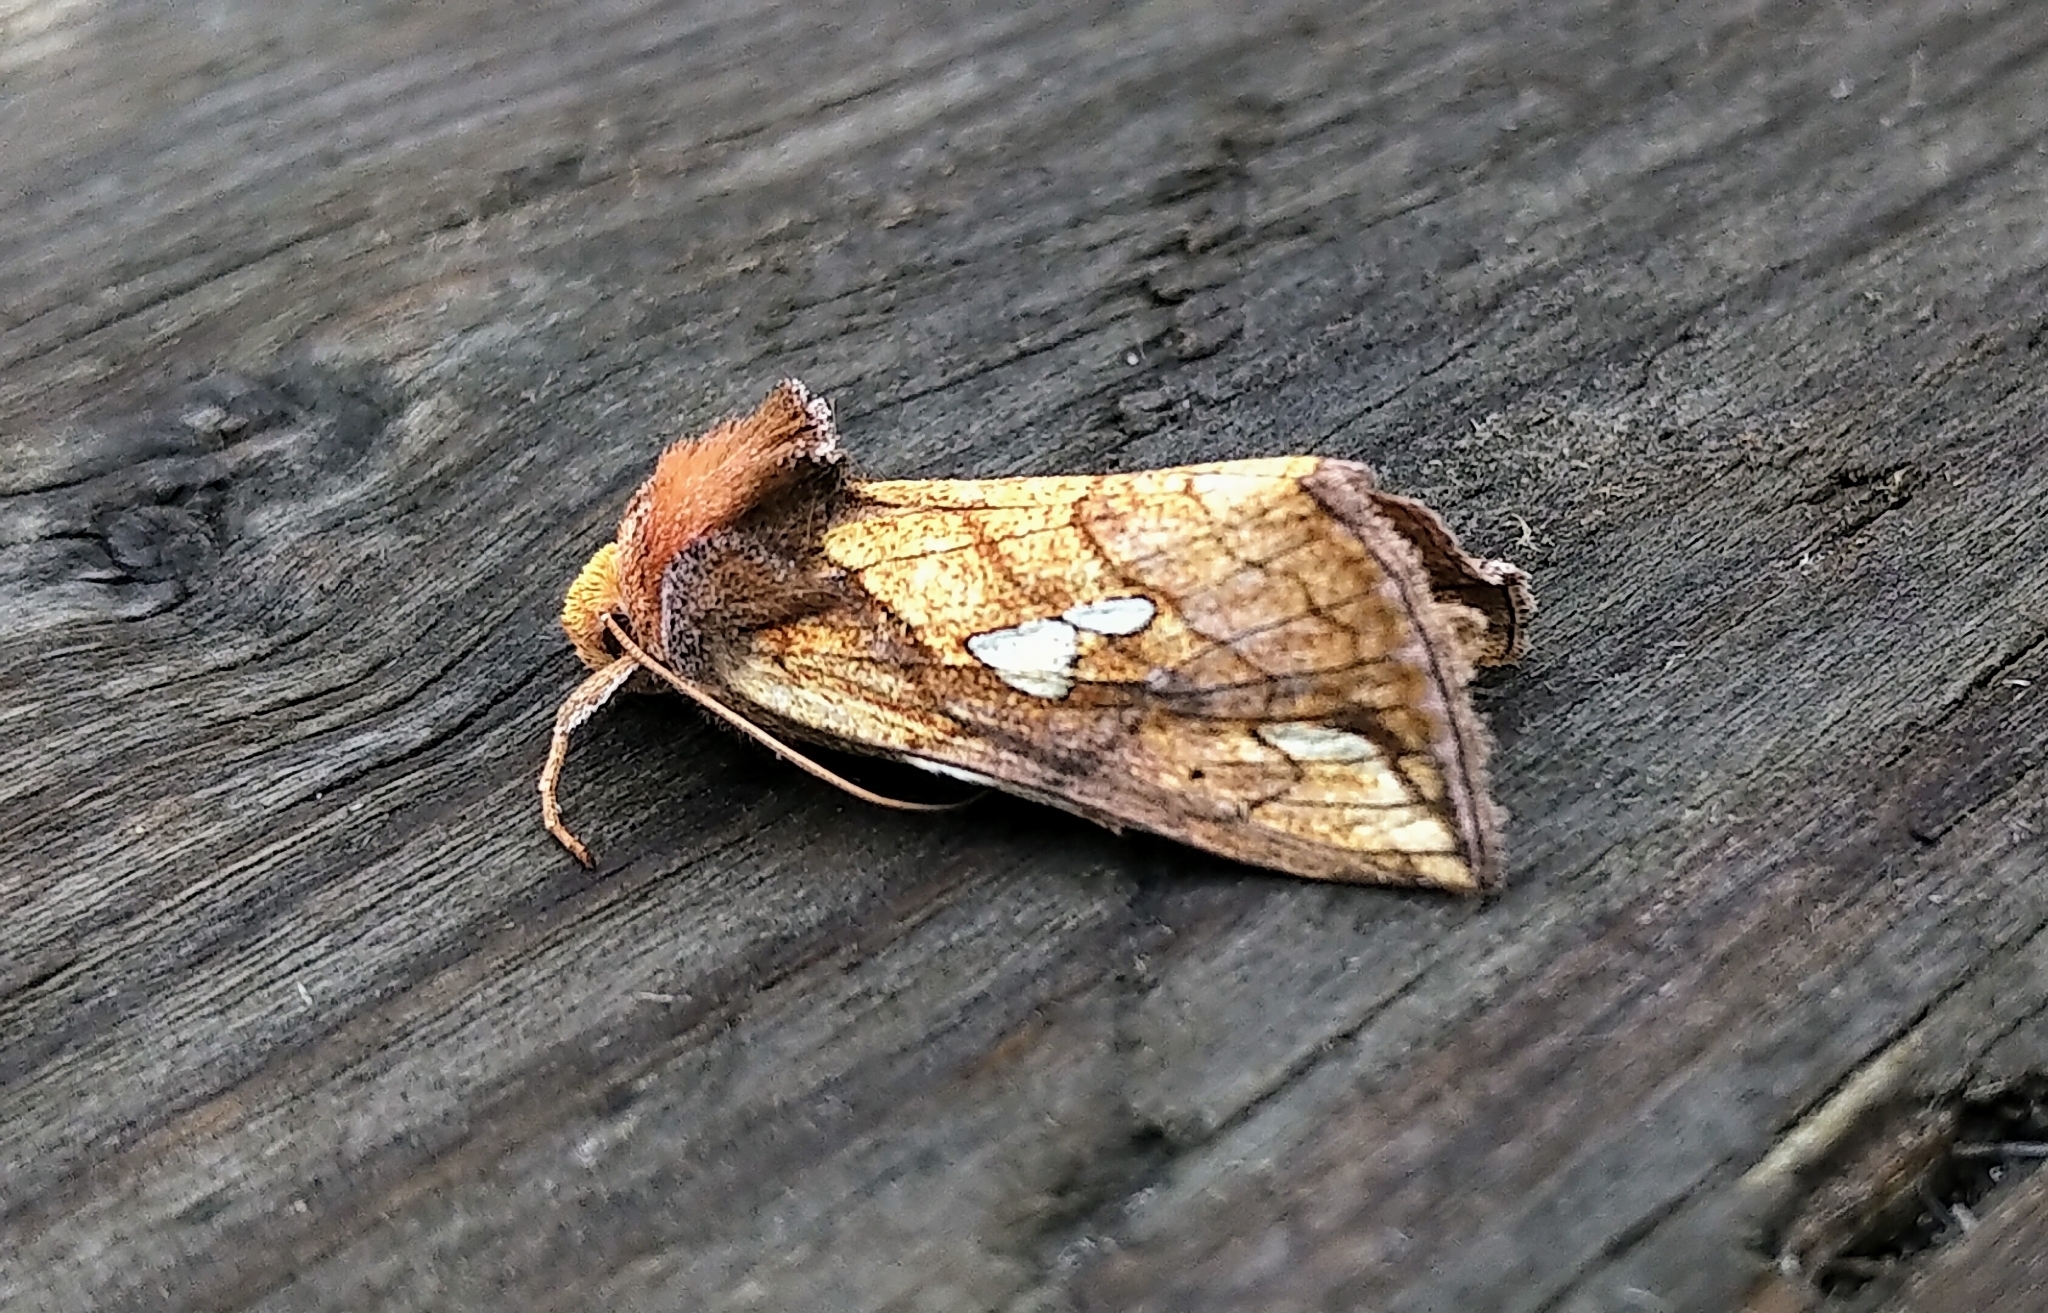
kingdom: Animalia
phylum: Arthropoda
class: Insecta
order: Lepidoptera
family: Noctuidae
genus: Plusia
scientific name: Plusia putnami
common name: Lempke's gold spot
